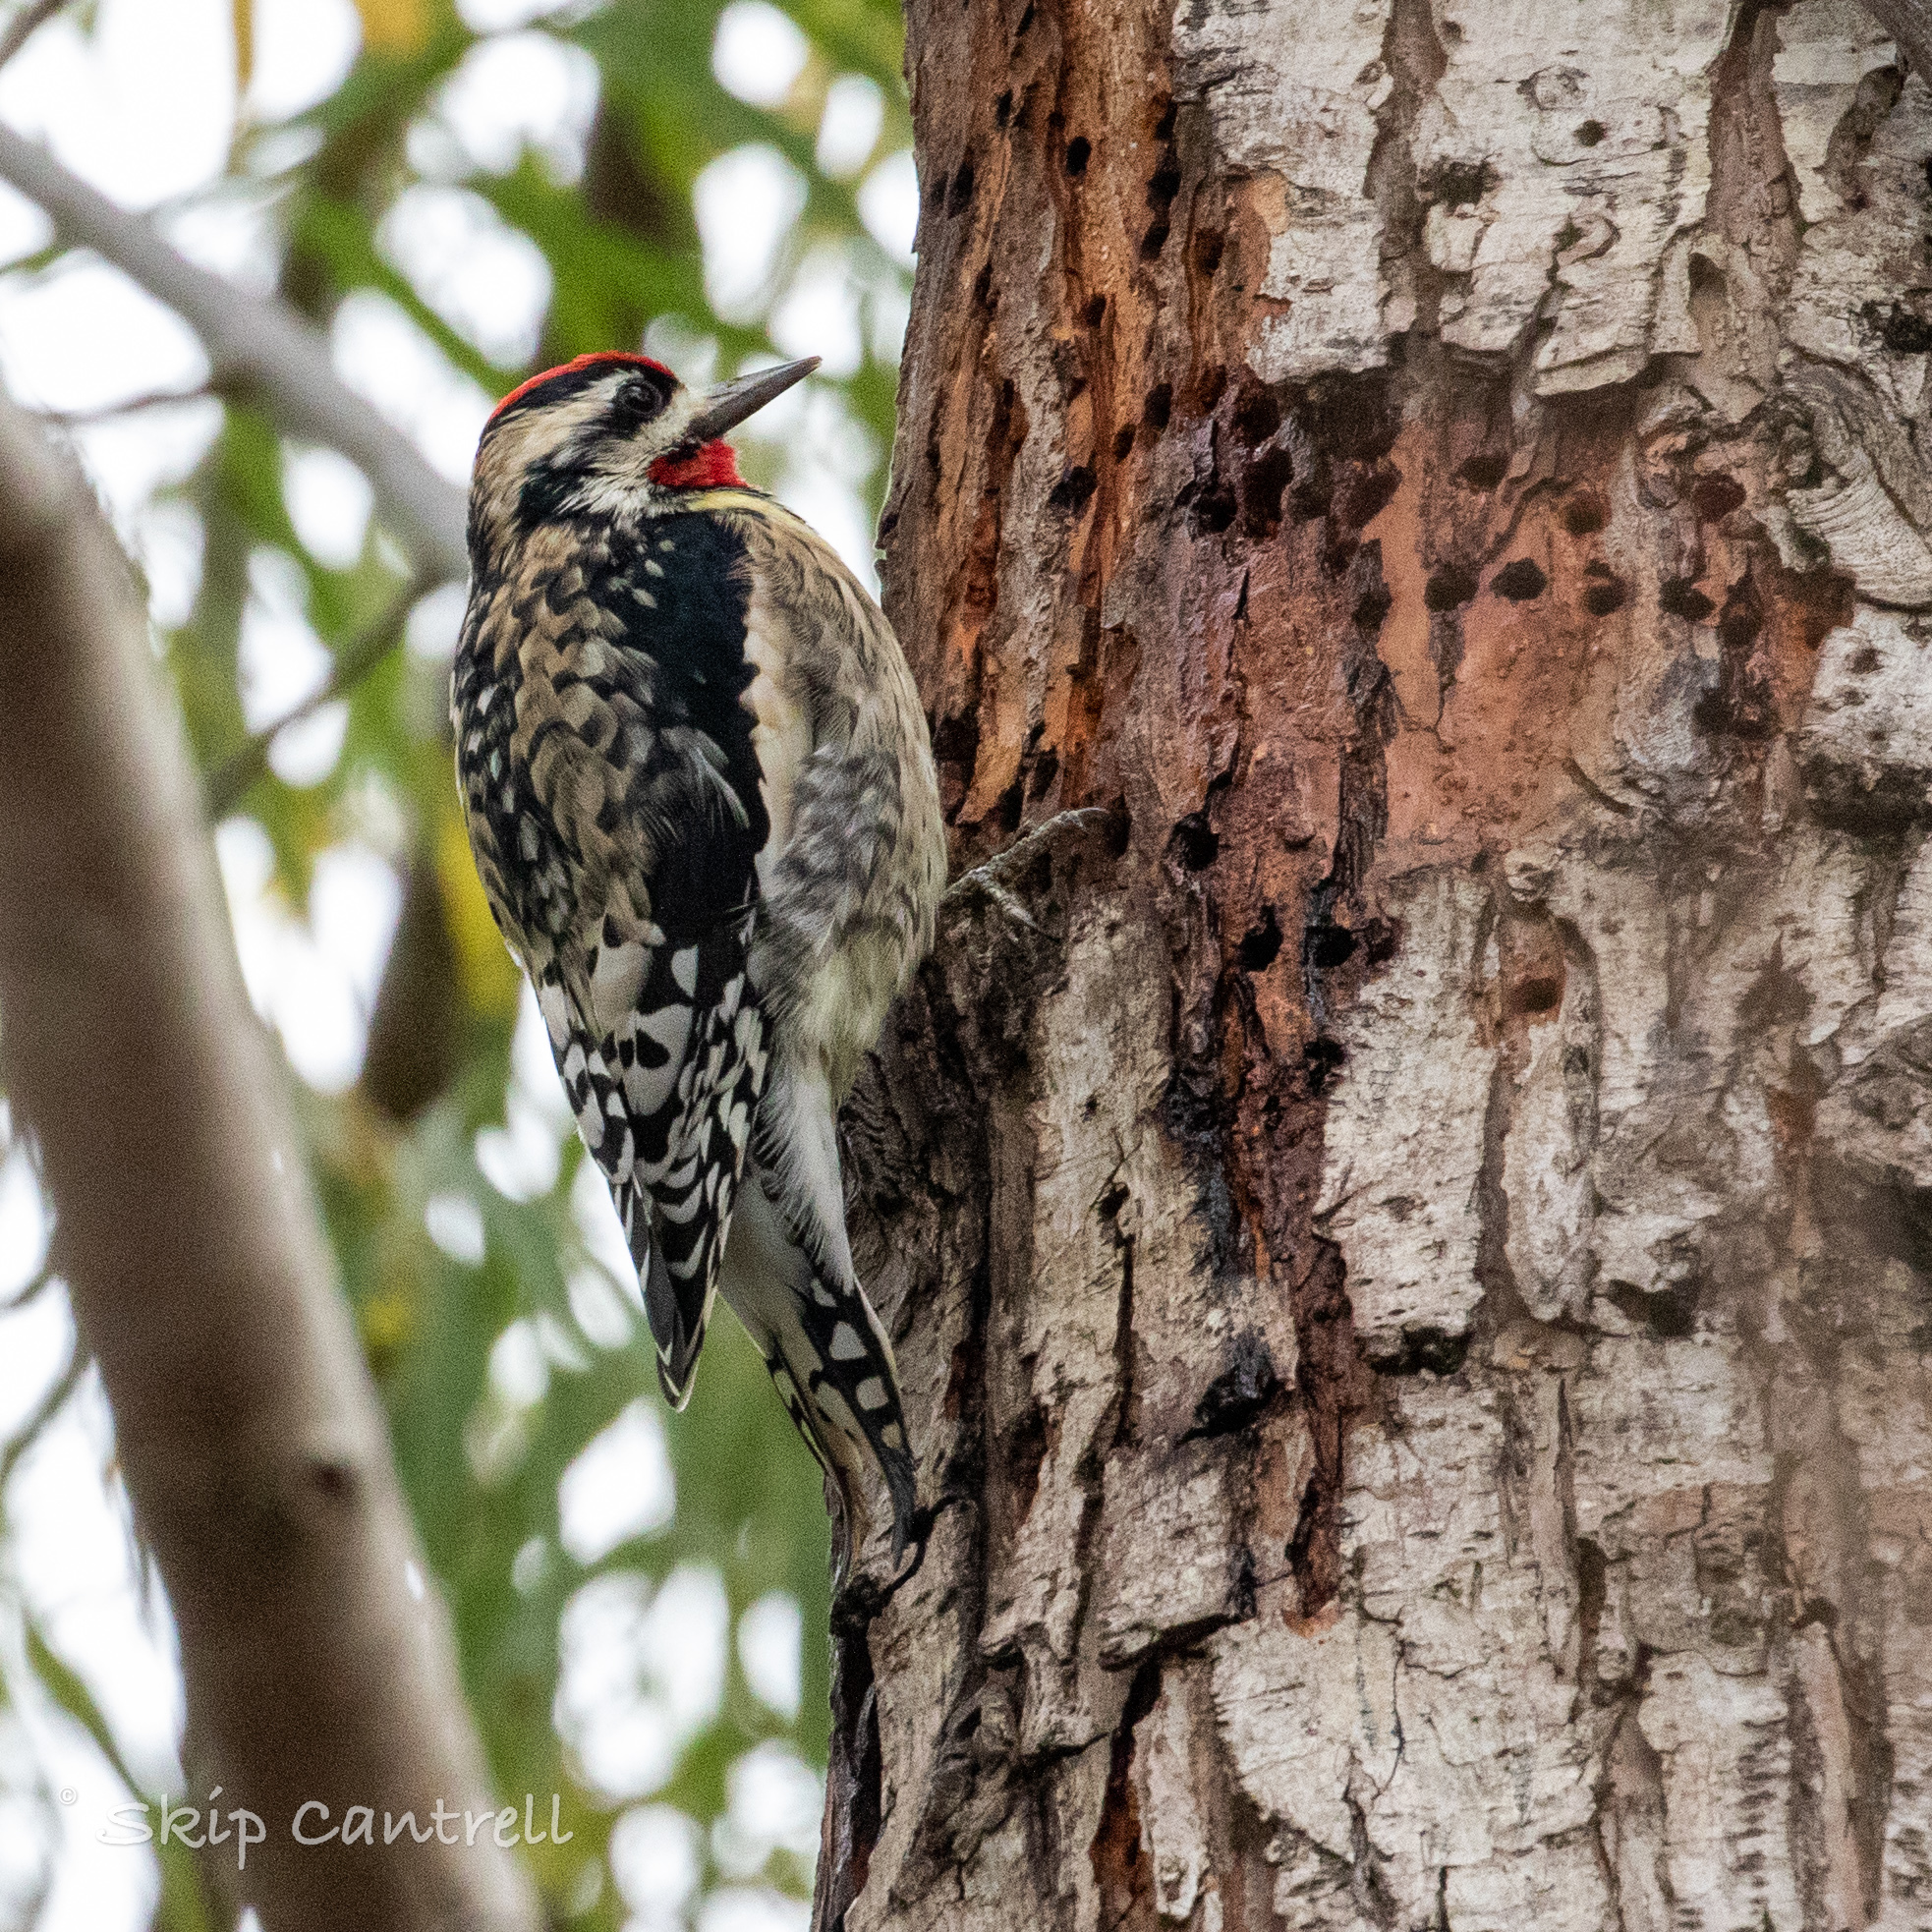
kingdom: Animalia
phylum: Chordata
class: Aves
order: Piciformes
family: Picidae
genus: Sphyrapicus
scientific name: Sphyrapicus varius
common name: Yellow-bellied sapsucker
